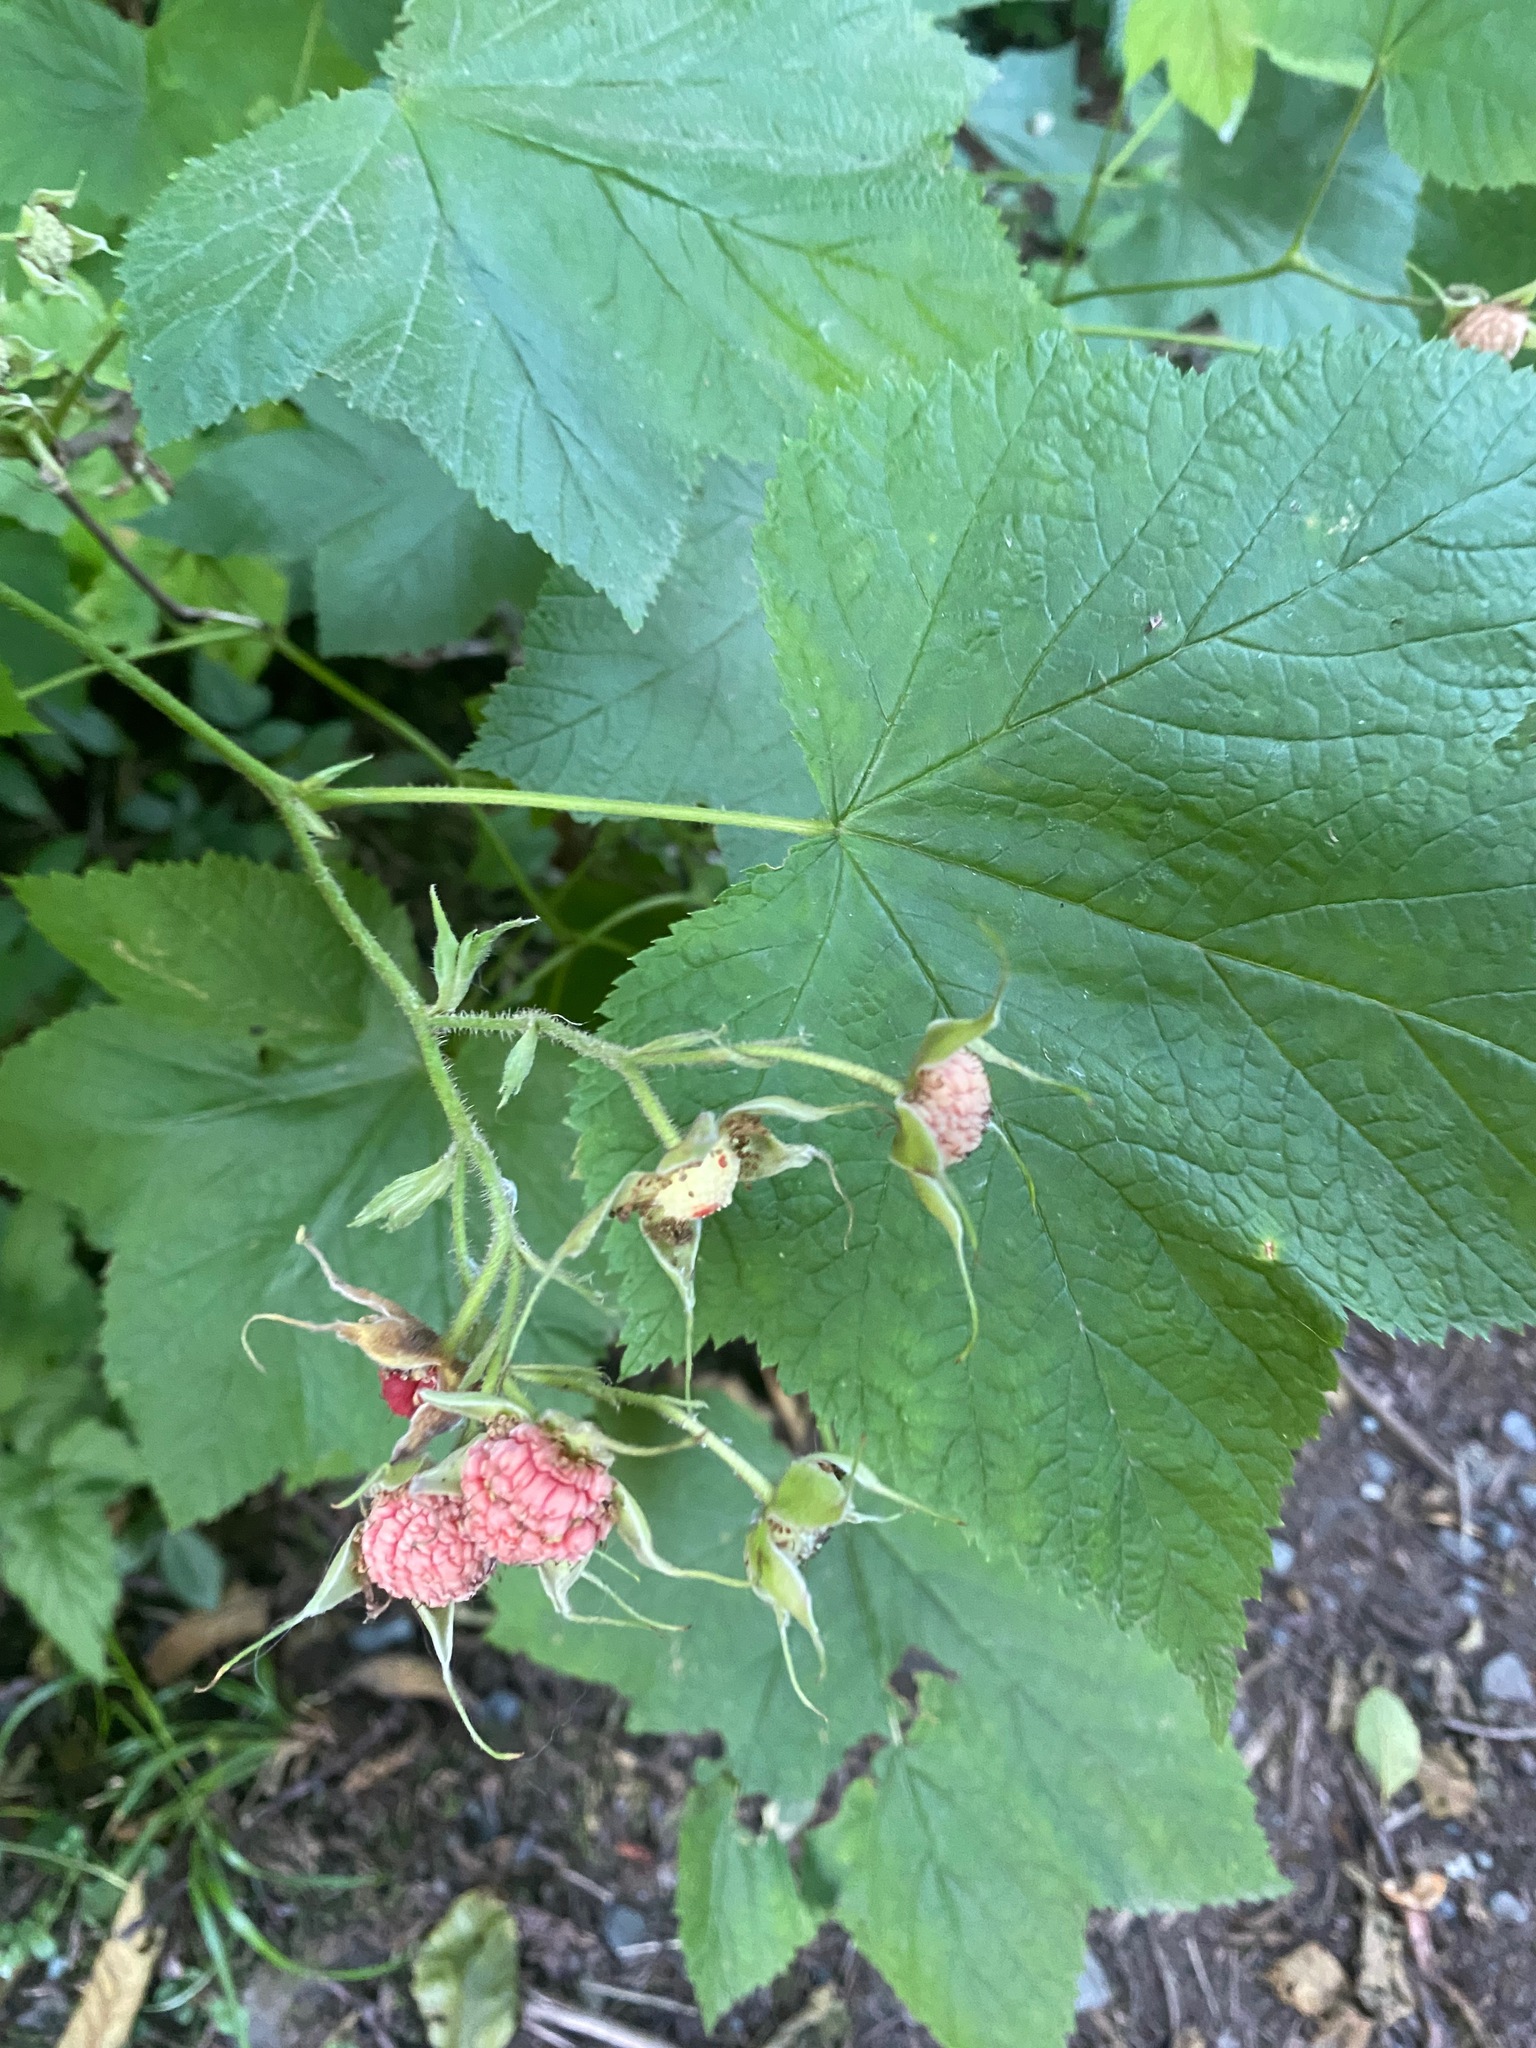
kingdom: Plantae
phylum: Tracheophyta
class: Magnoliopsida
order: Rosales
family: Rosaceae
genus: Rubus
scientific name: Rubus parviflorus
